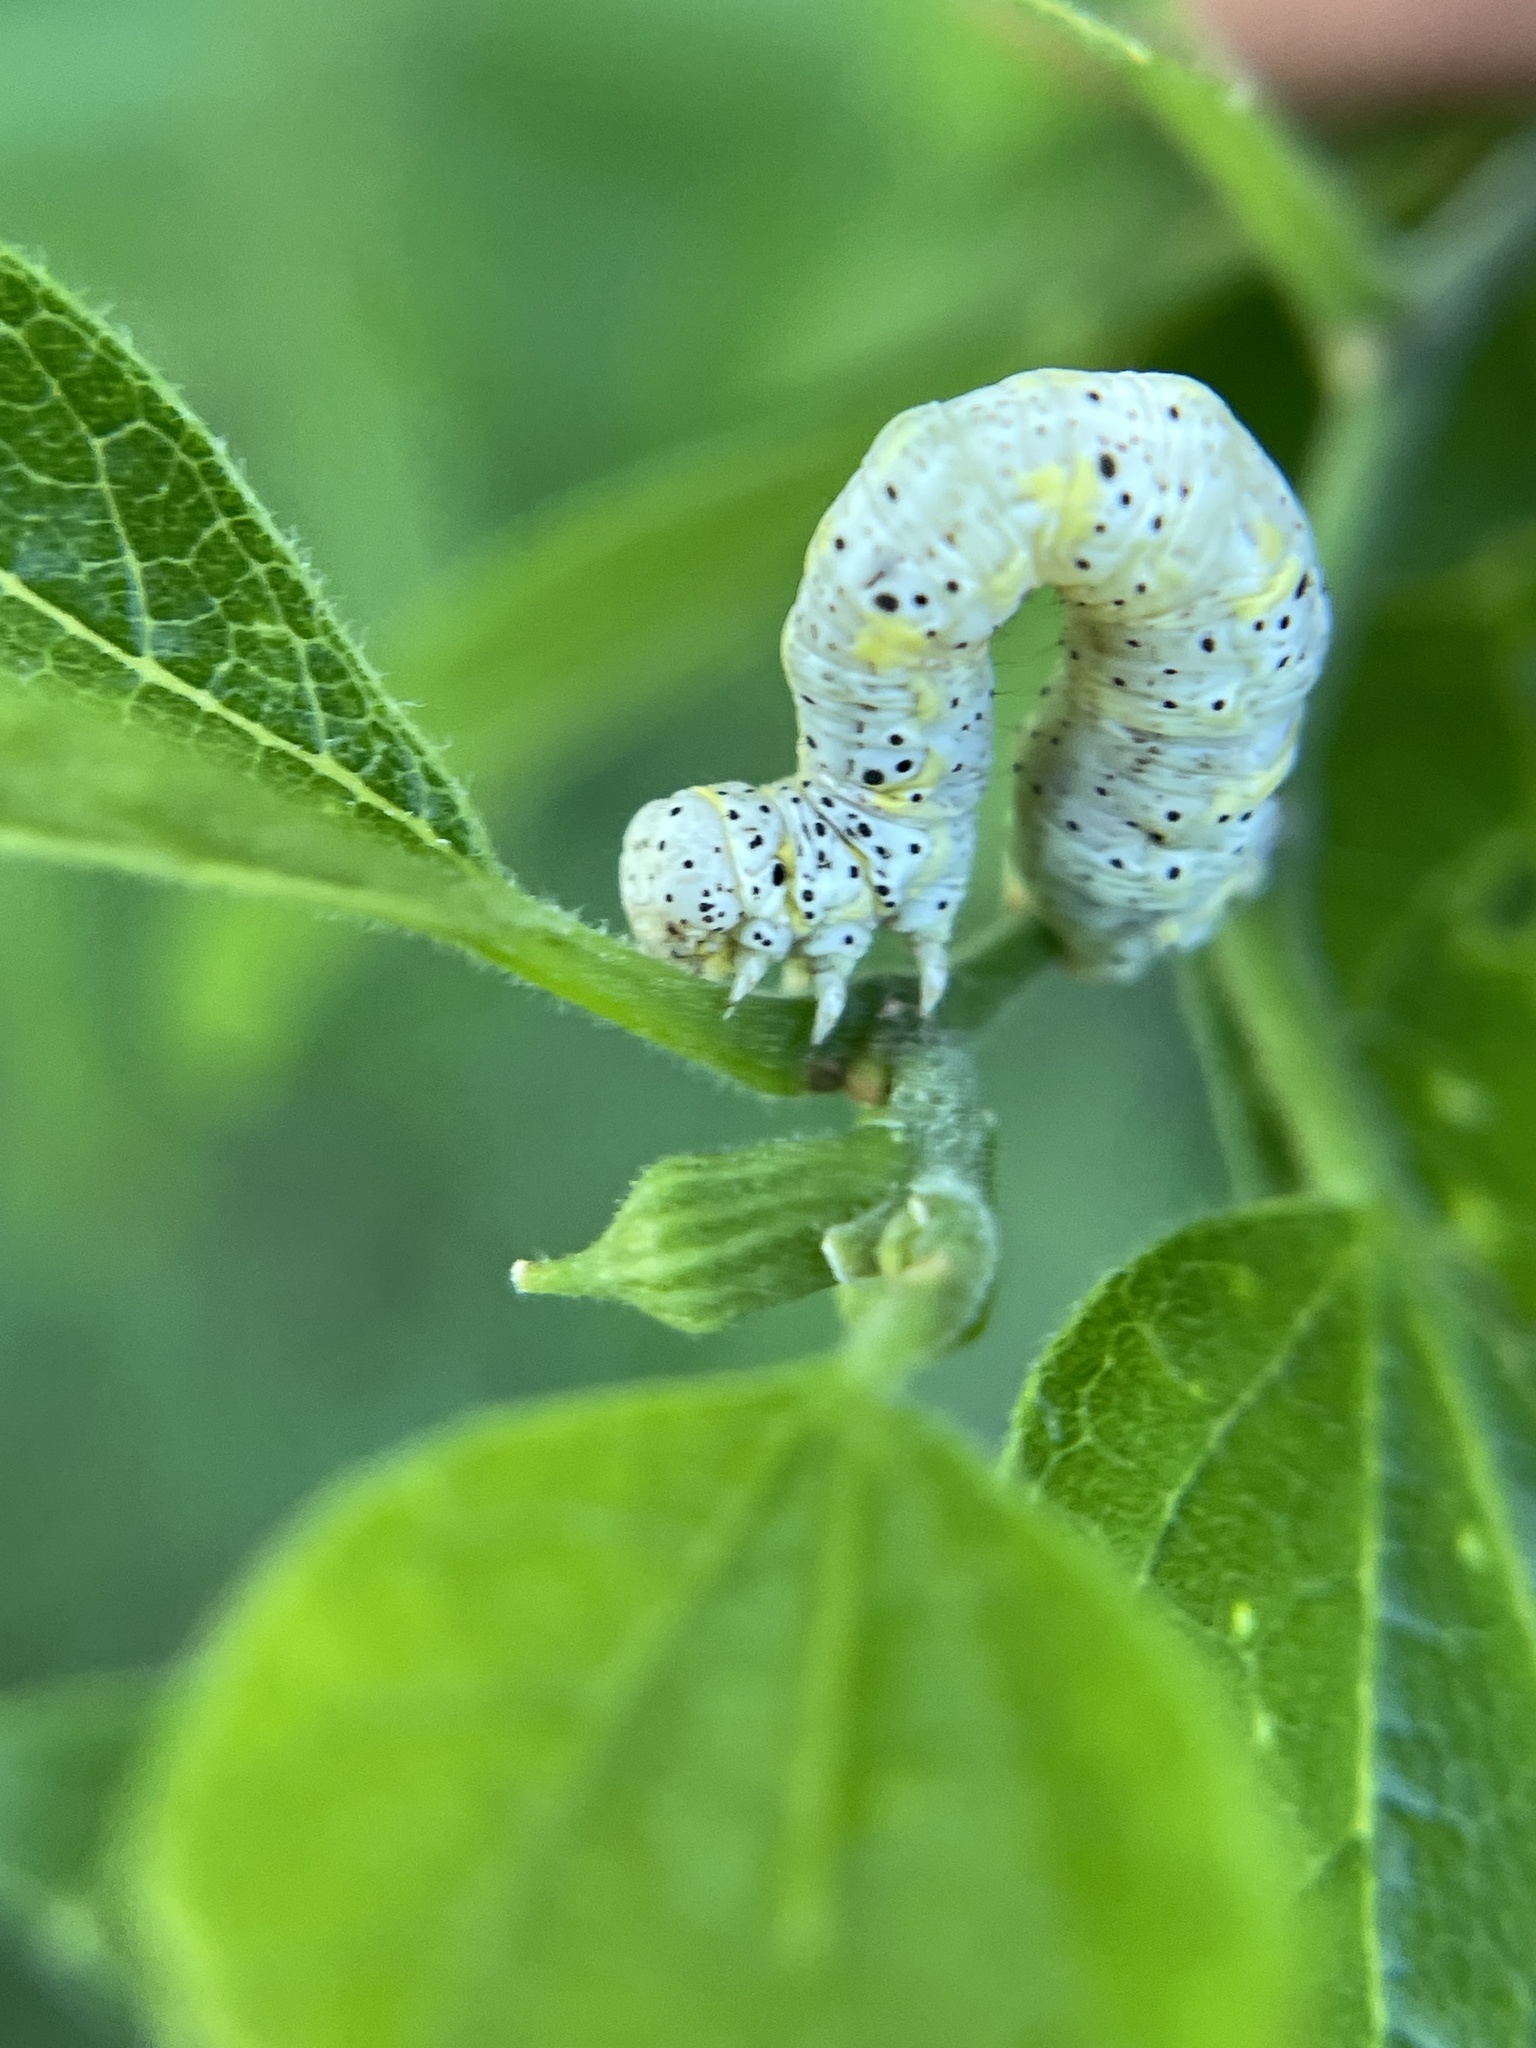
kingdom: Animalia
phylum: Arthropoda
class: Insecta
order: Lepidoptera
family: Geometridae
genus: Isturgia
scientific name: Isturgia dislocaria
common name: Pale-viened enconista
